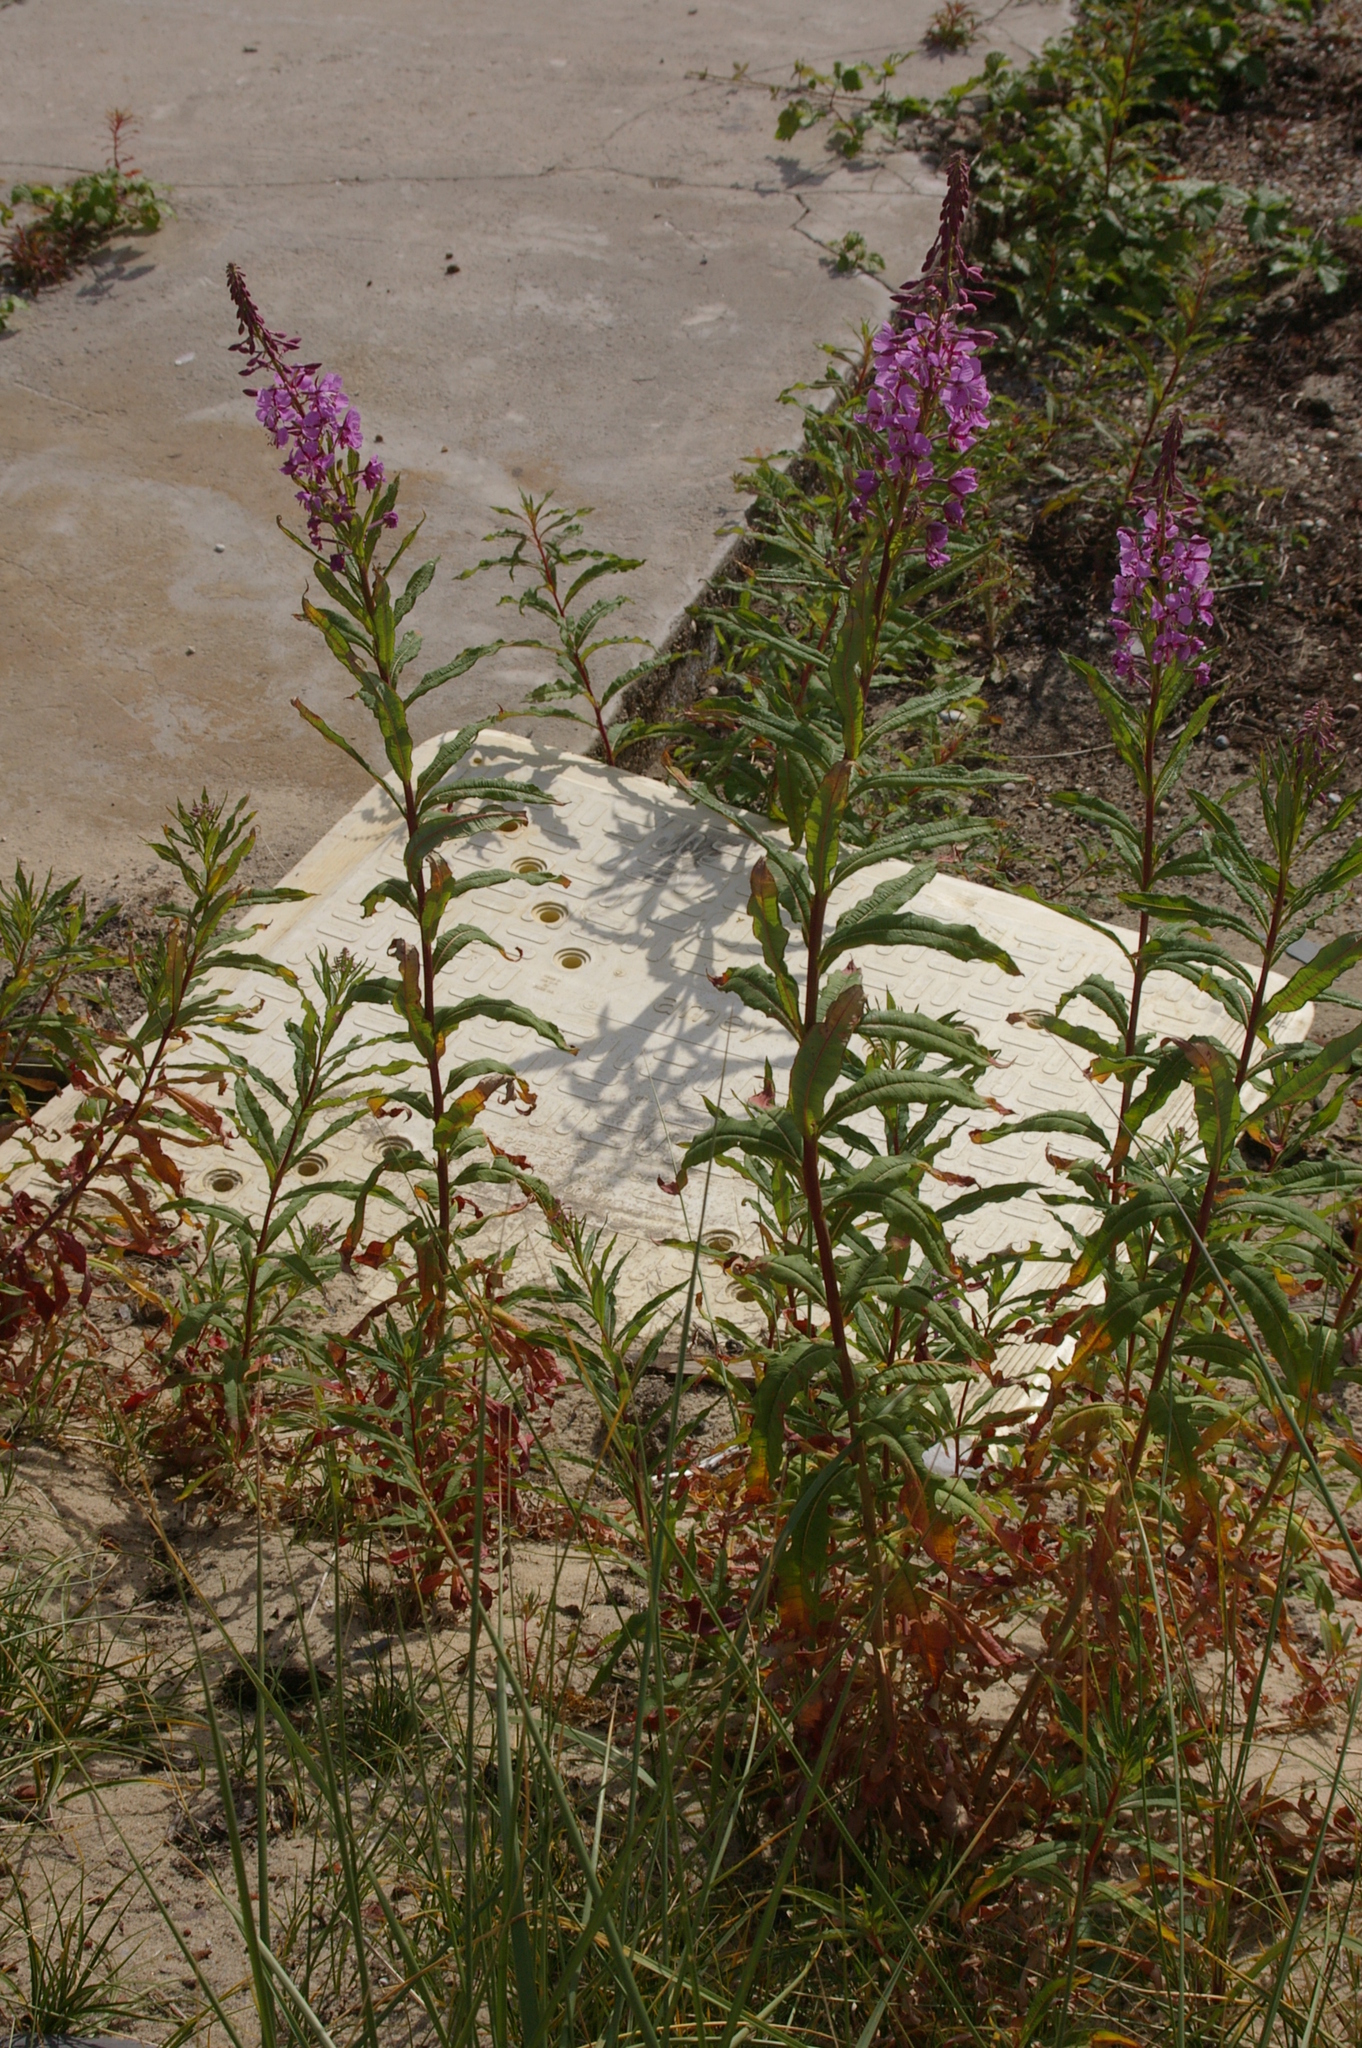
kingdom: Plantae
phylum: Tracheophyta
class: Magnoliopsida
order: Myrtales
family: Onagraceae
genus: Chamaenerion
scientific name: Chamaenerion angustifolium
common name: Fireweed
